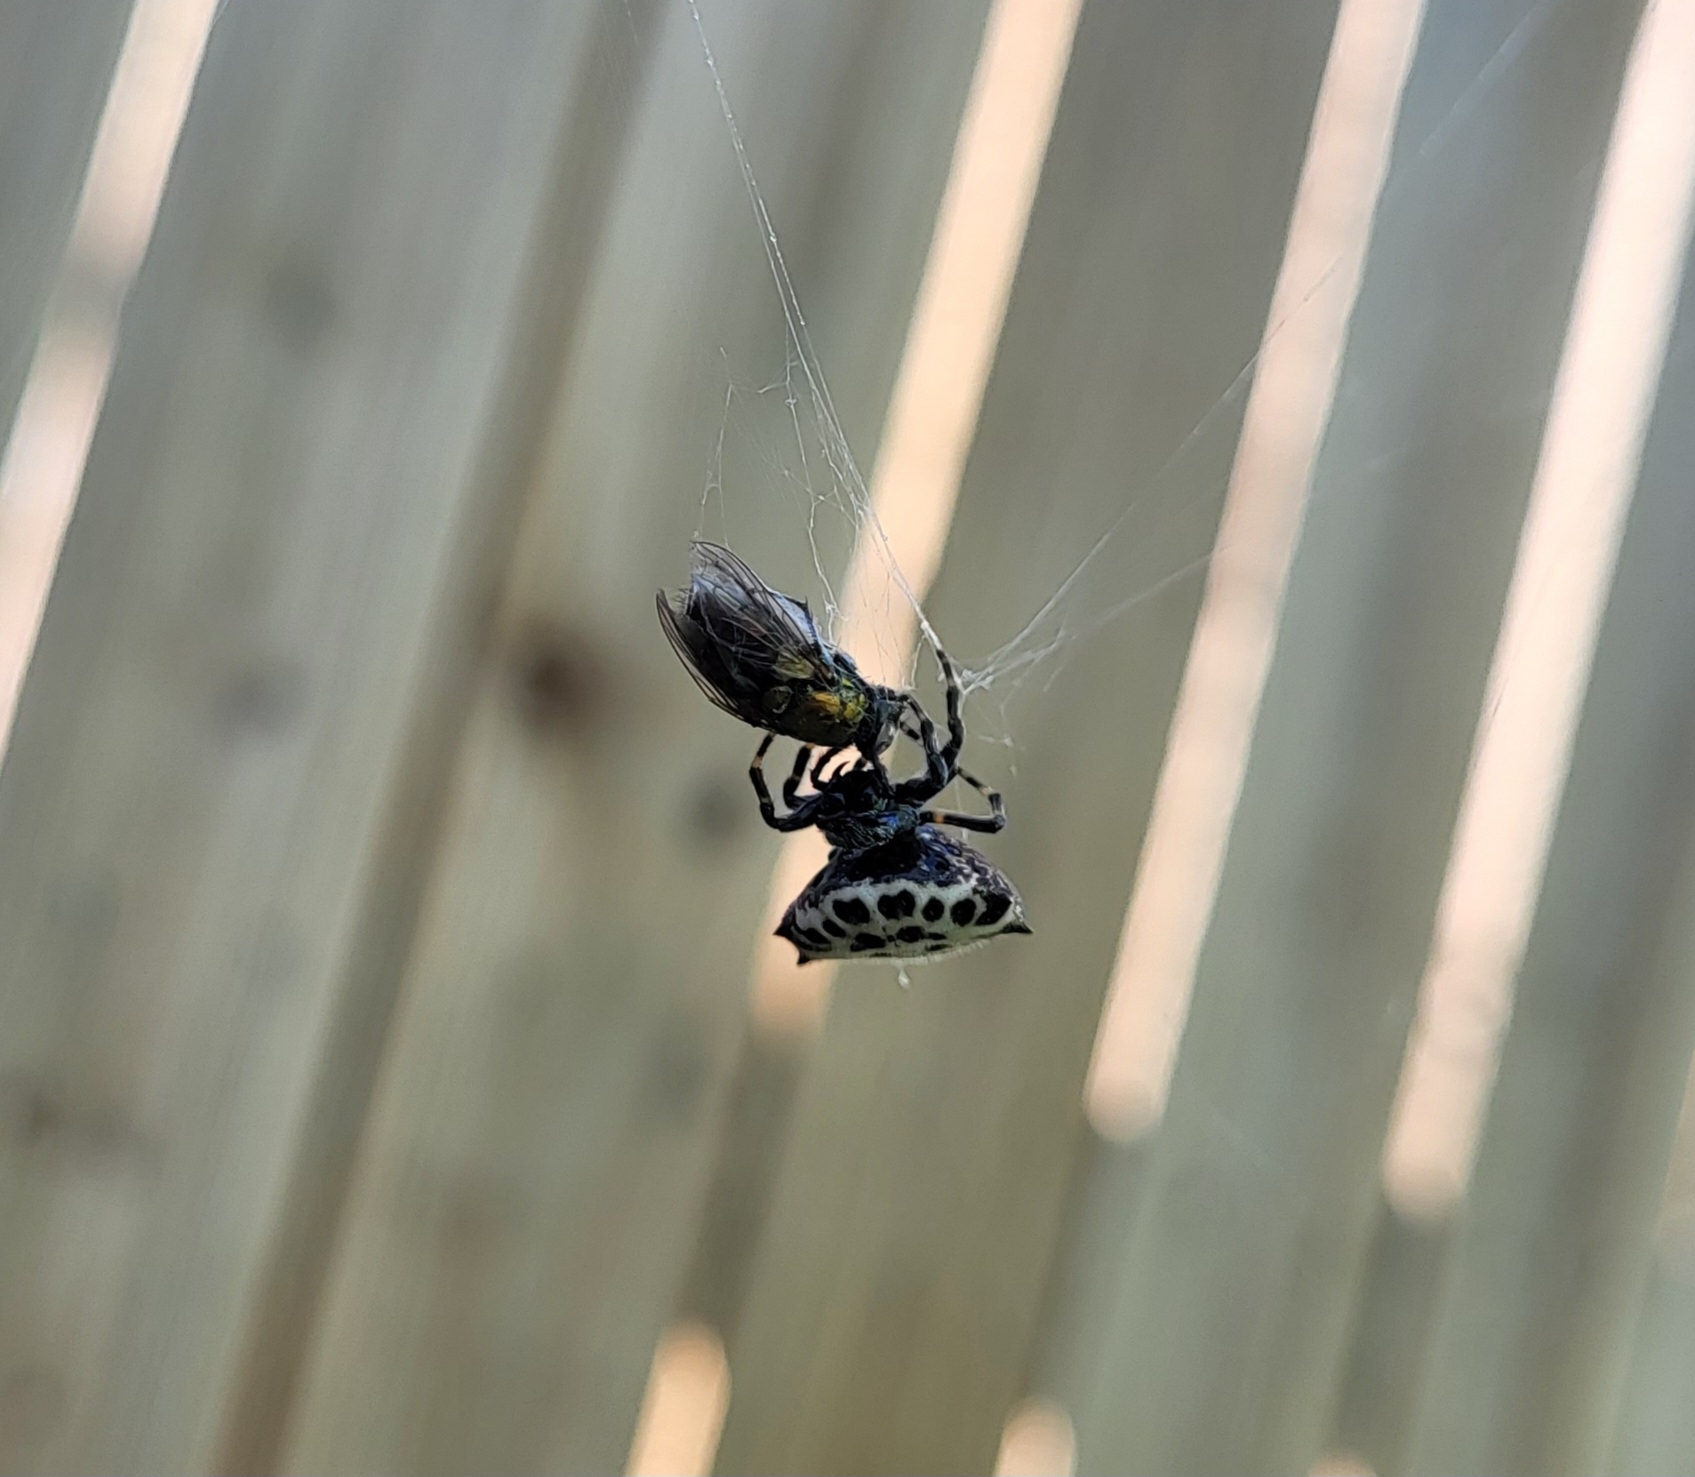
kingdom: Animalia
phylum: Arthropoda
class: Arachnida
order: Araneae
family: Araneidae
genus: Gasteracantha
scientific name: Gasteracantha cancriformis
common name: Orb weavers
